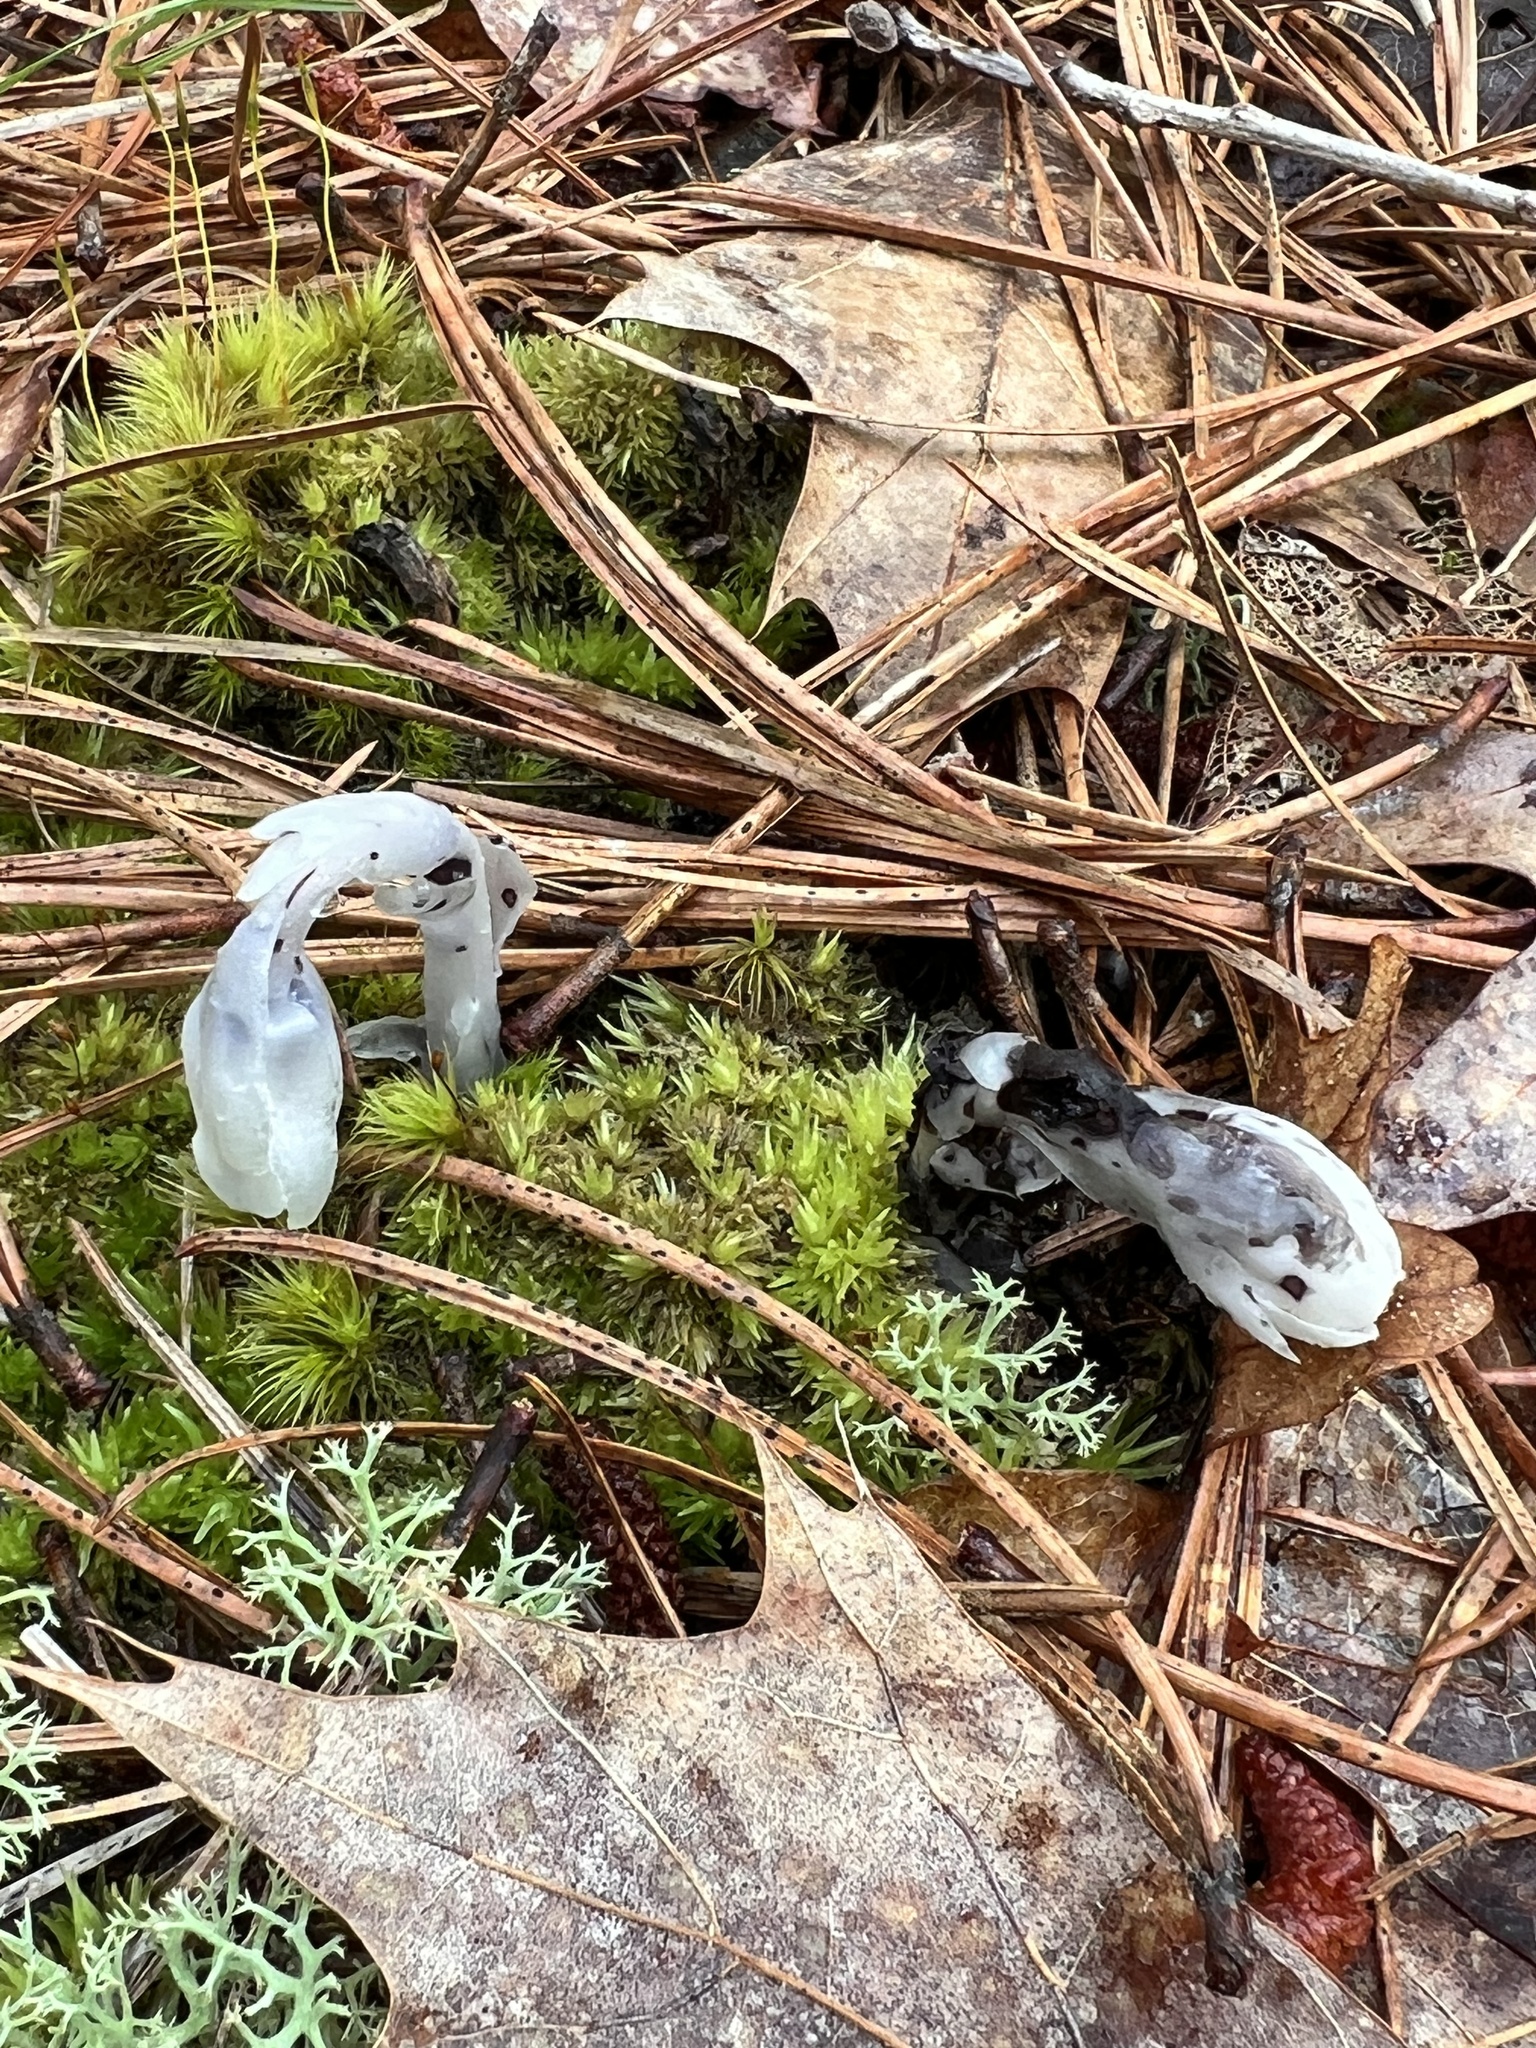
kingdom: Plantae
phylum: Tracheophyta
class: Magnoliopsida
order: Ericales
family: Ericaceae
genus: Monotropa
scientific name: Monotropa uniflora
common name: Convulsion root
